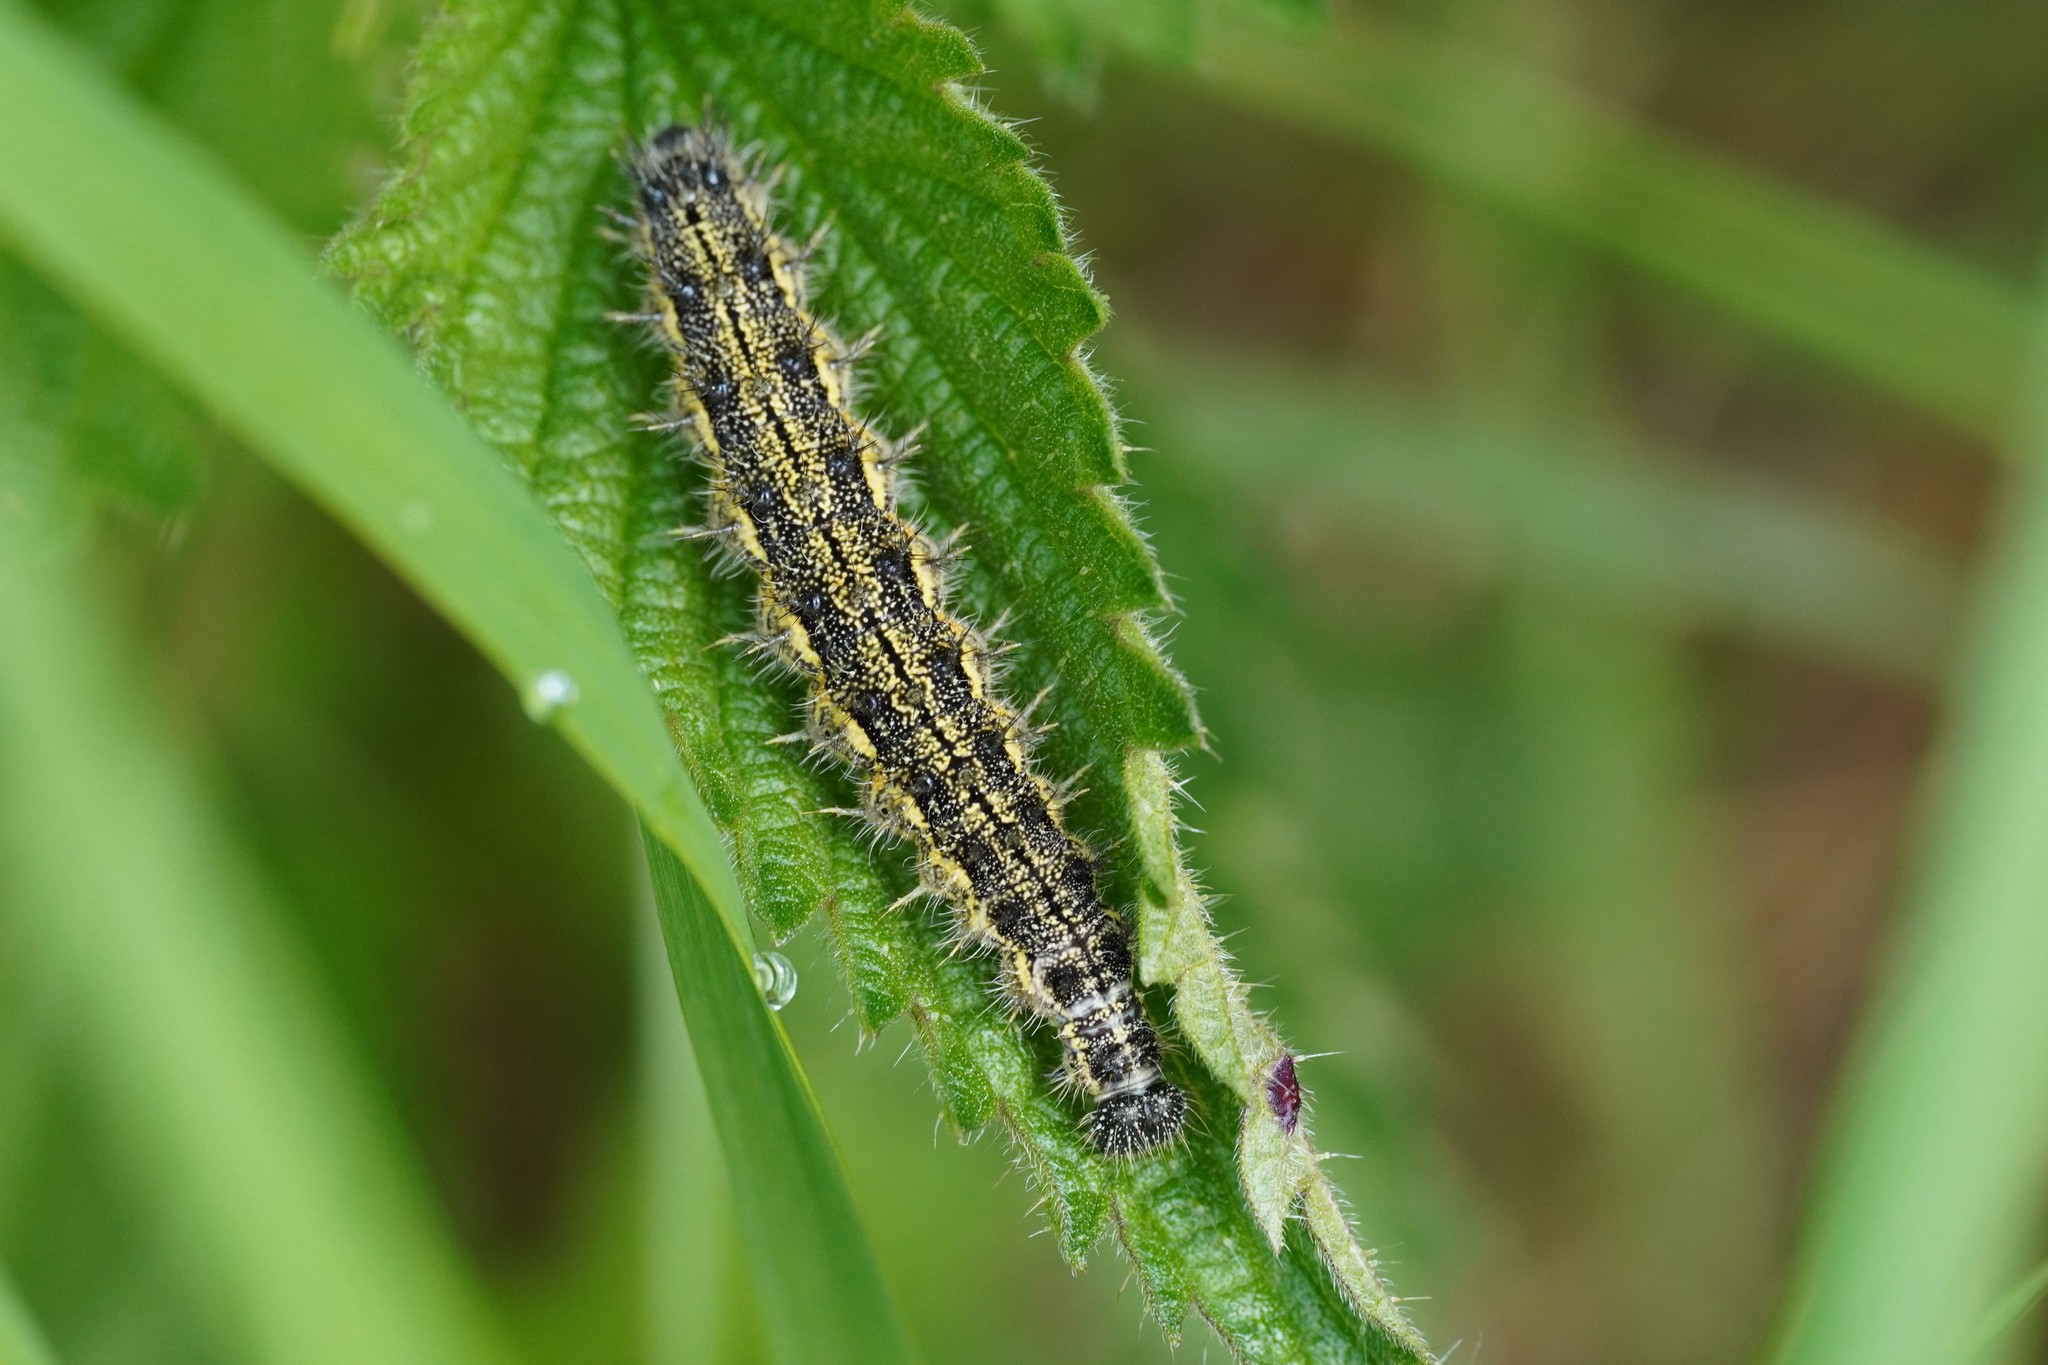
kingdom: Animalia
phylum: Arthropoda
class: Insecta
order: Lepidoptera
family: Nymphalidae
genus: Aglais
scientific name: Aglais urticae
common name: Small tortoiseshell
